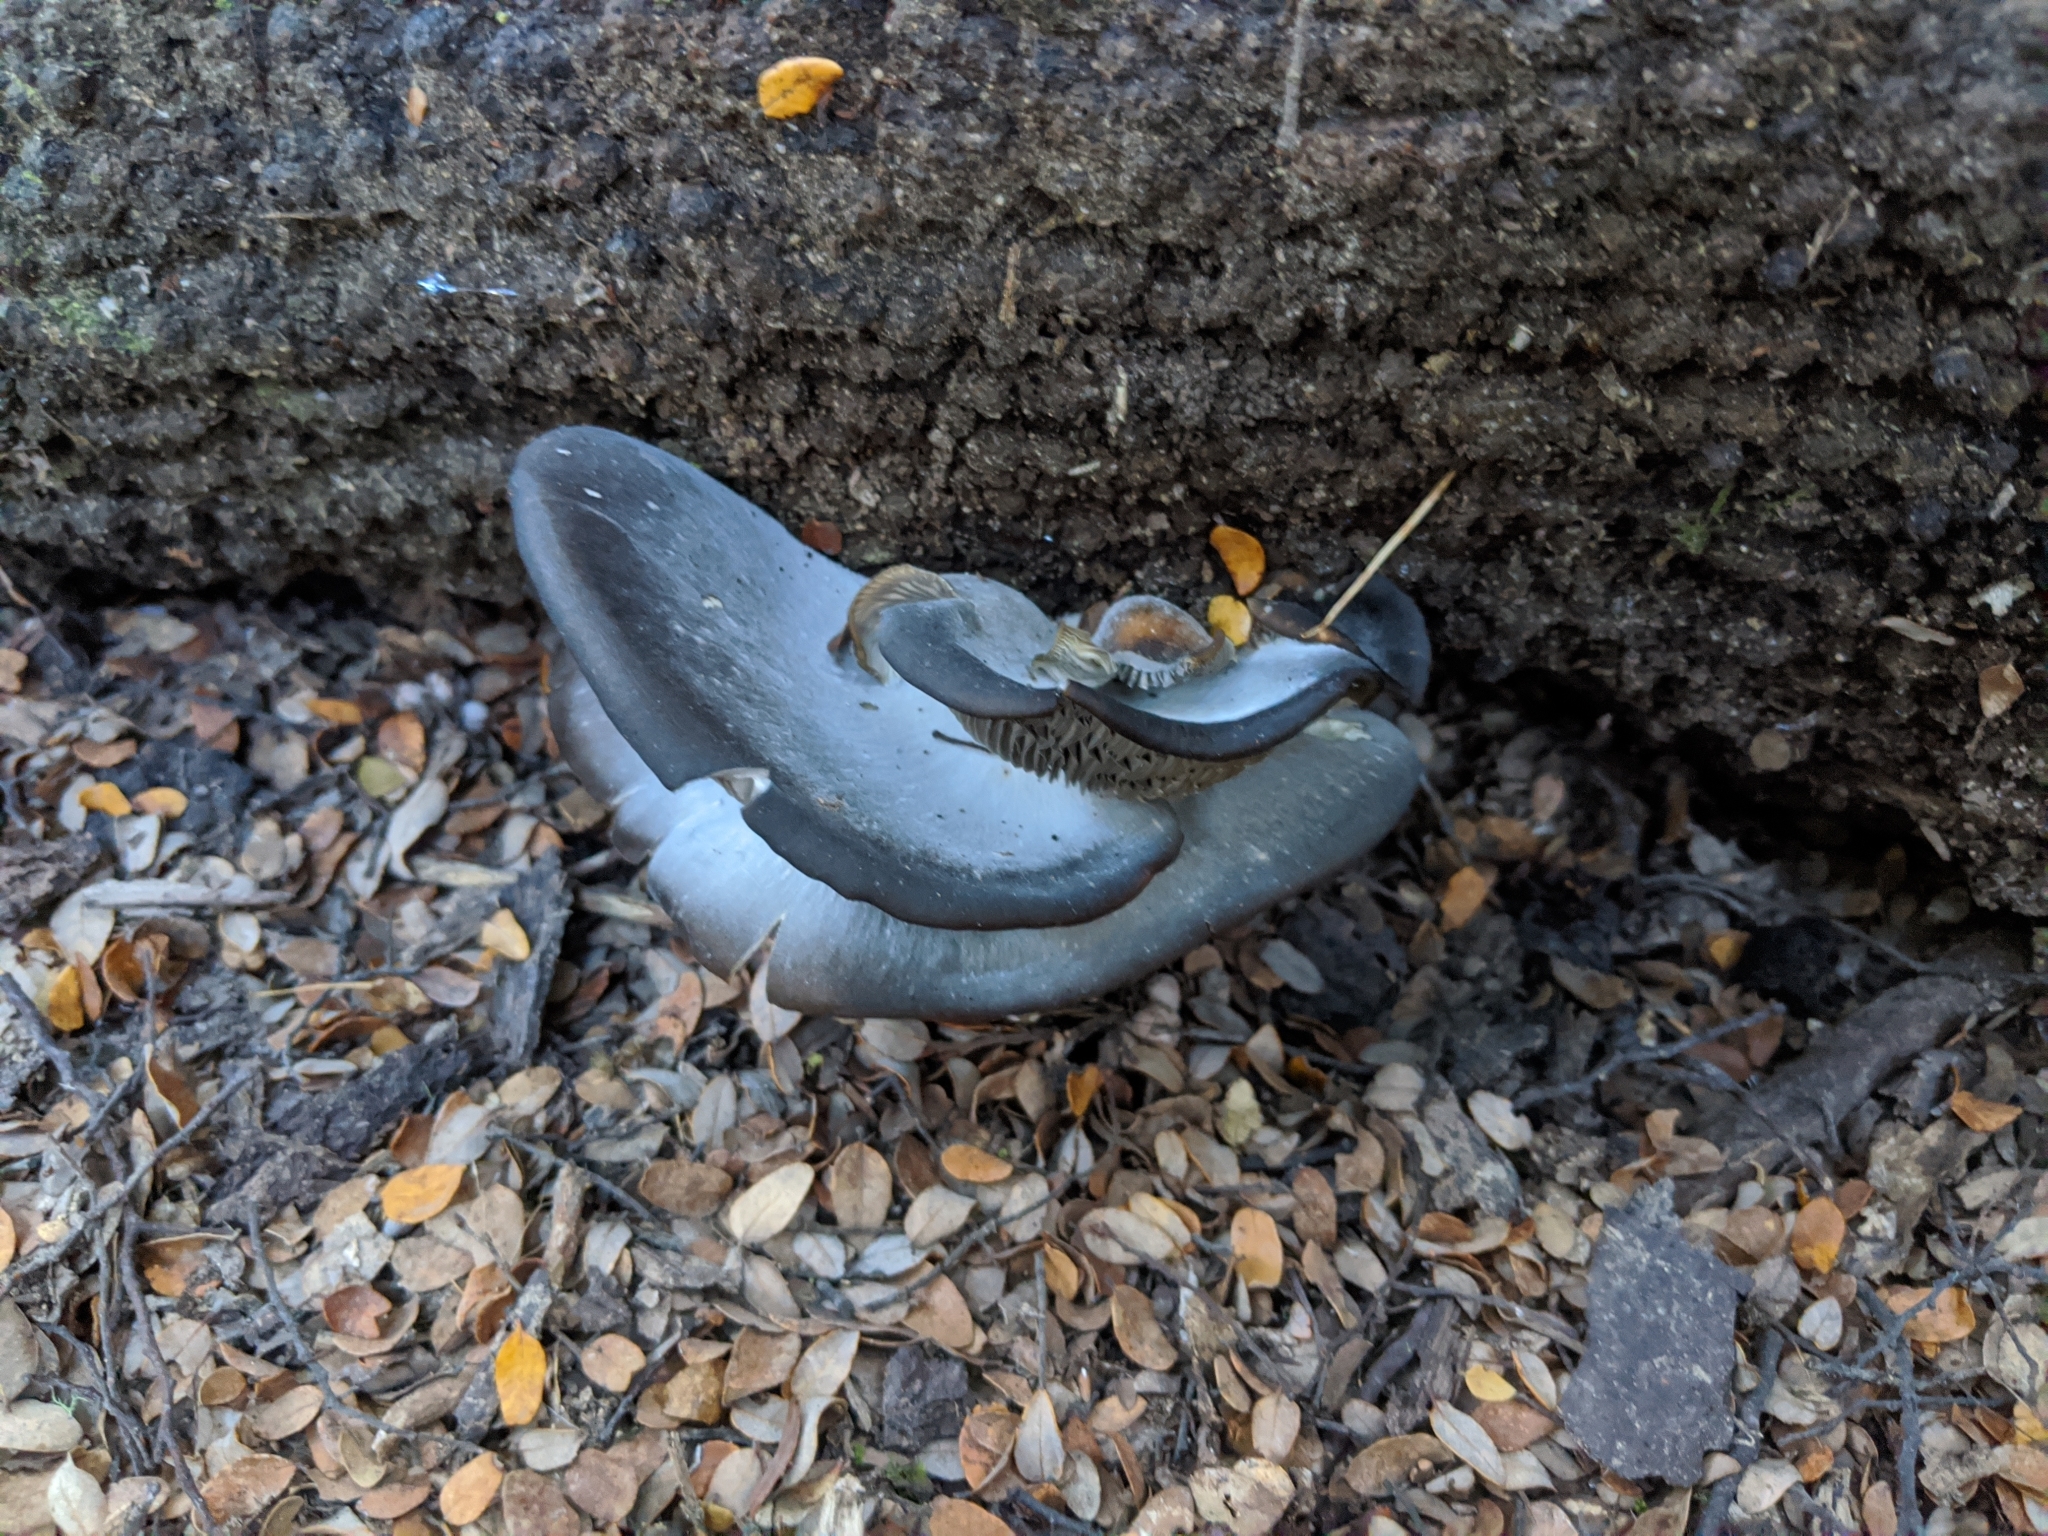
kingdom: Fungi
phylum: Basidiomycota
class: Agaricomycetes
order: Agaricales
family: Pleurotaceae
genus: Pleurotus
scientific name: Pleurotus purpureo-olivaceus
